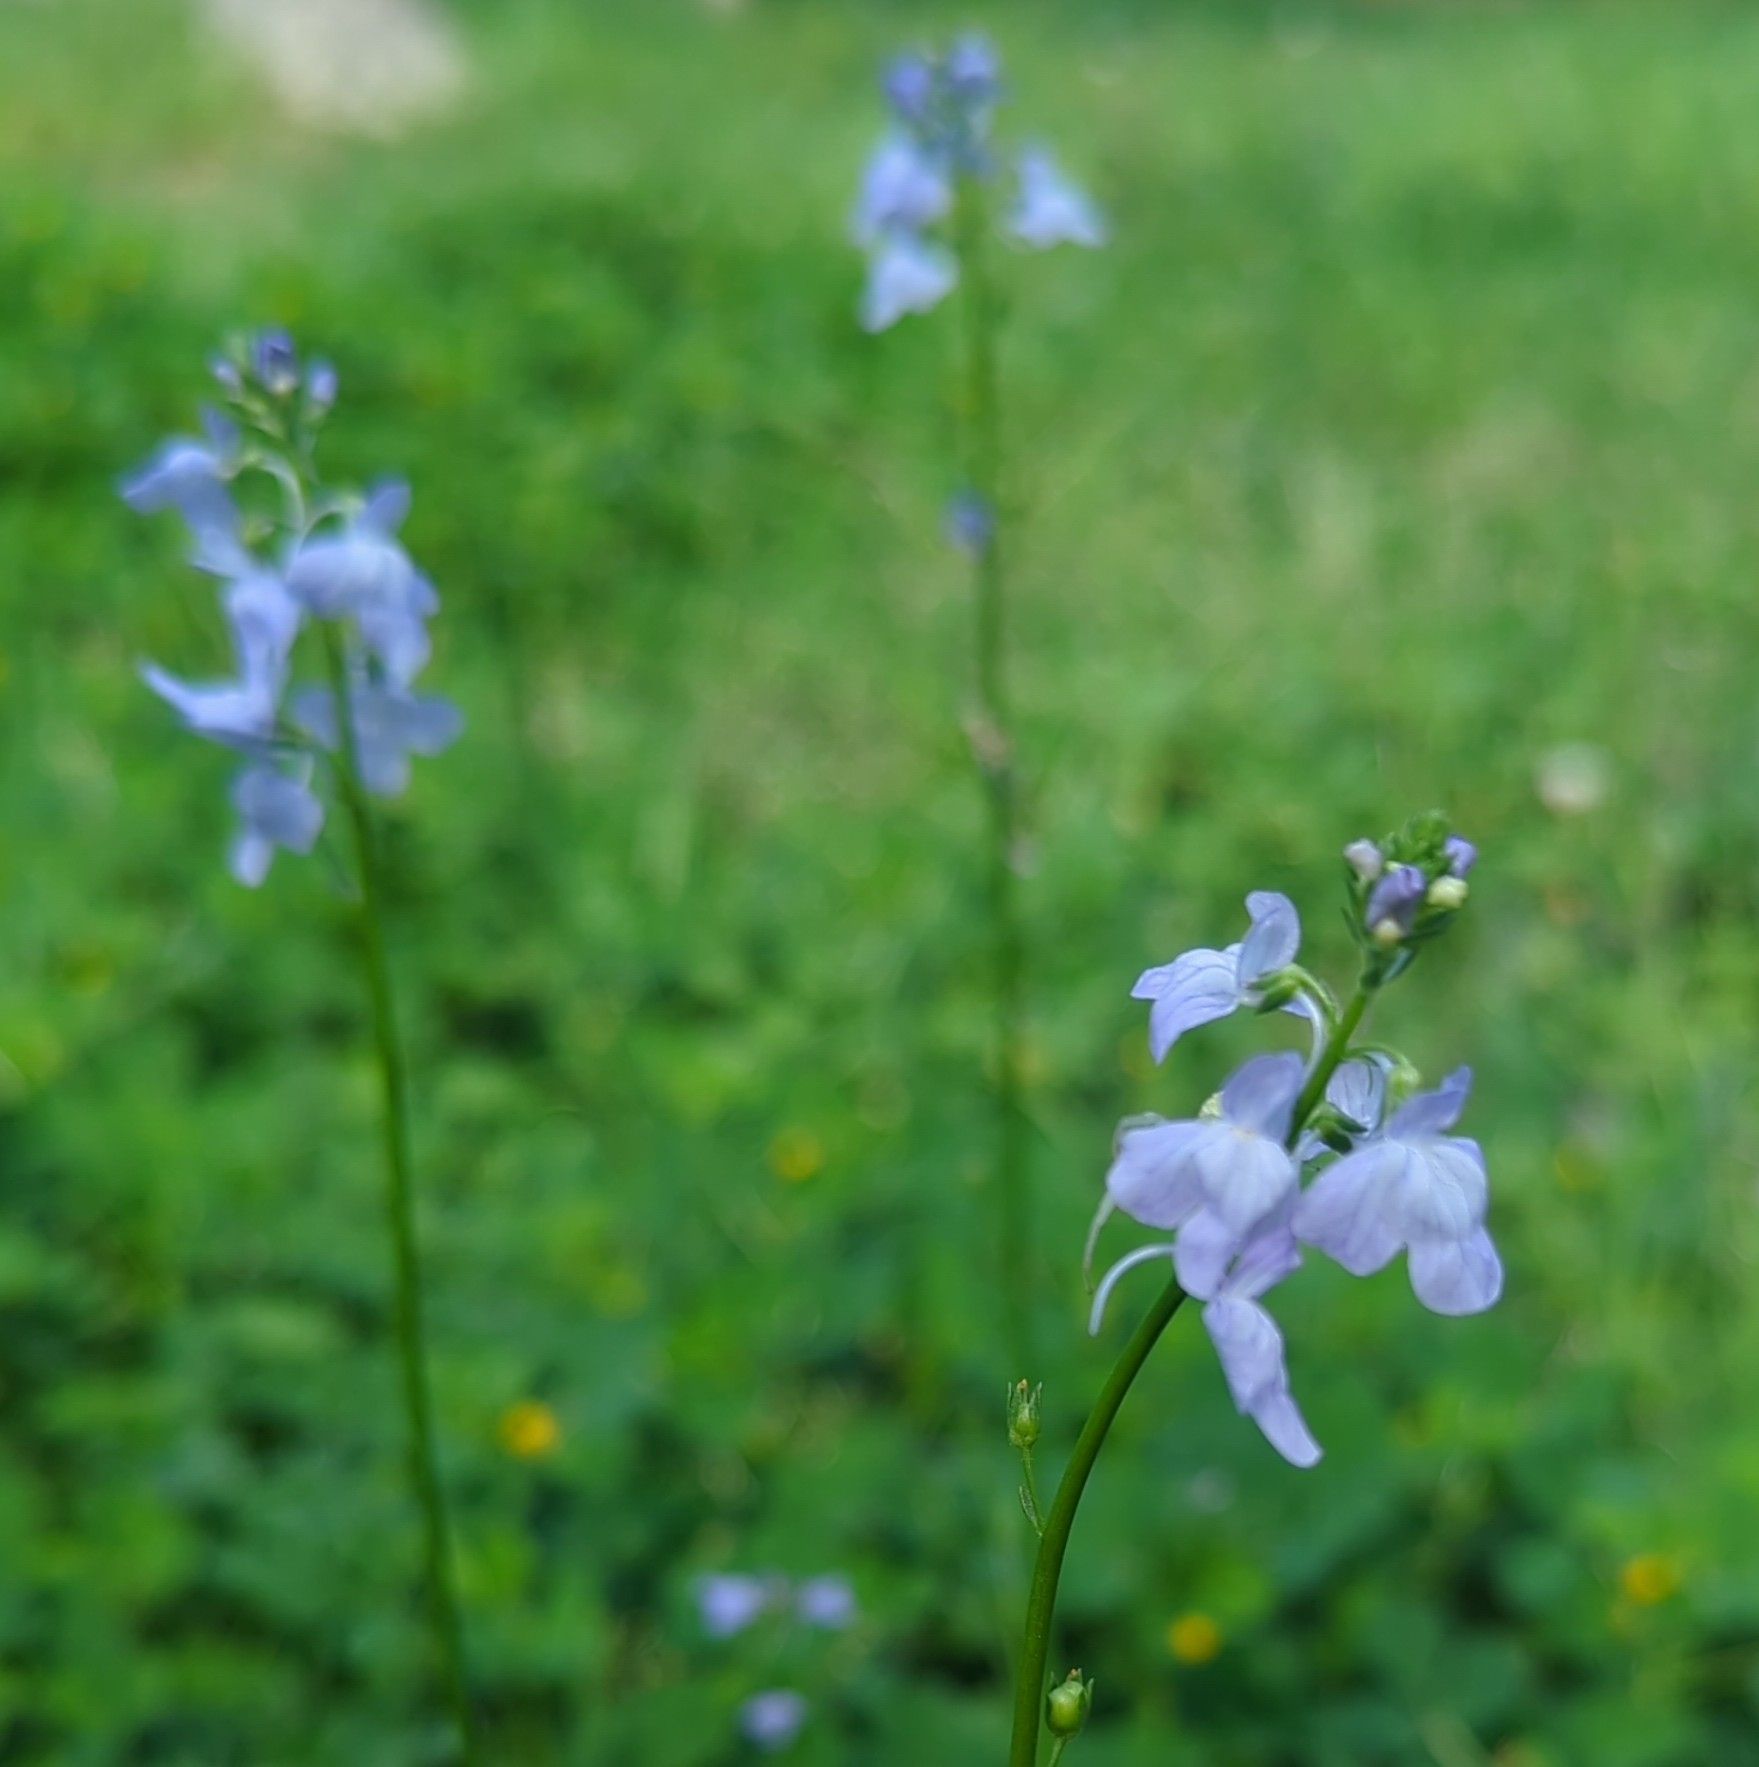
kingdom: Plantae
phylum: Tracheophyta
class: Magnoliopsida
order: Lamiales
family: Plantaginaceae
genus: Nuttallanthus
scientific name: Nuttallanthus texanus
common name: Texas toadflax
